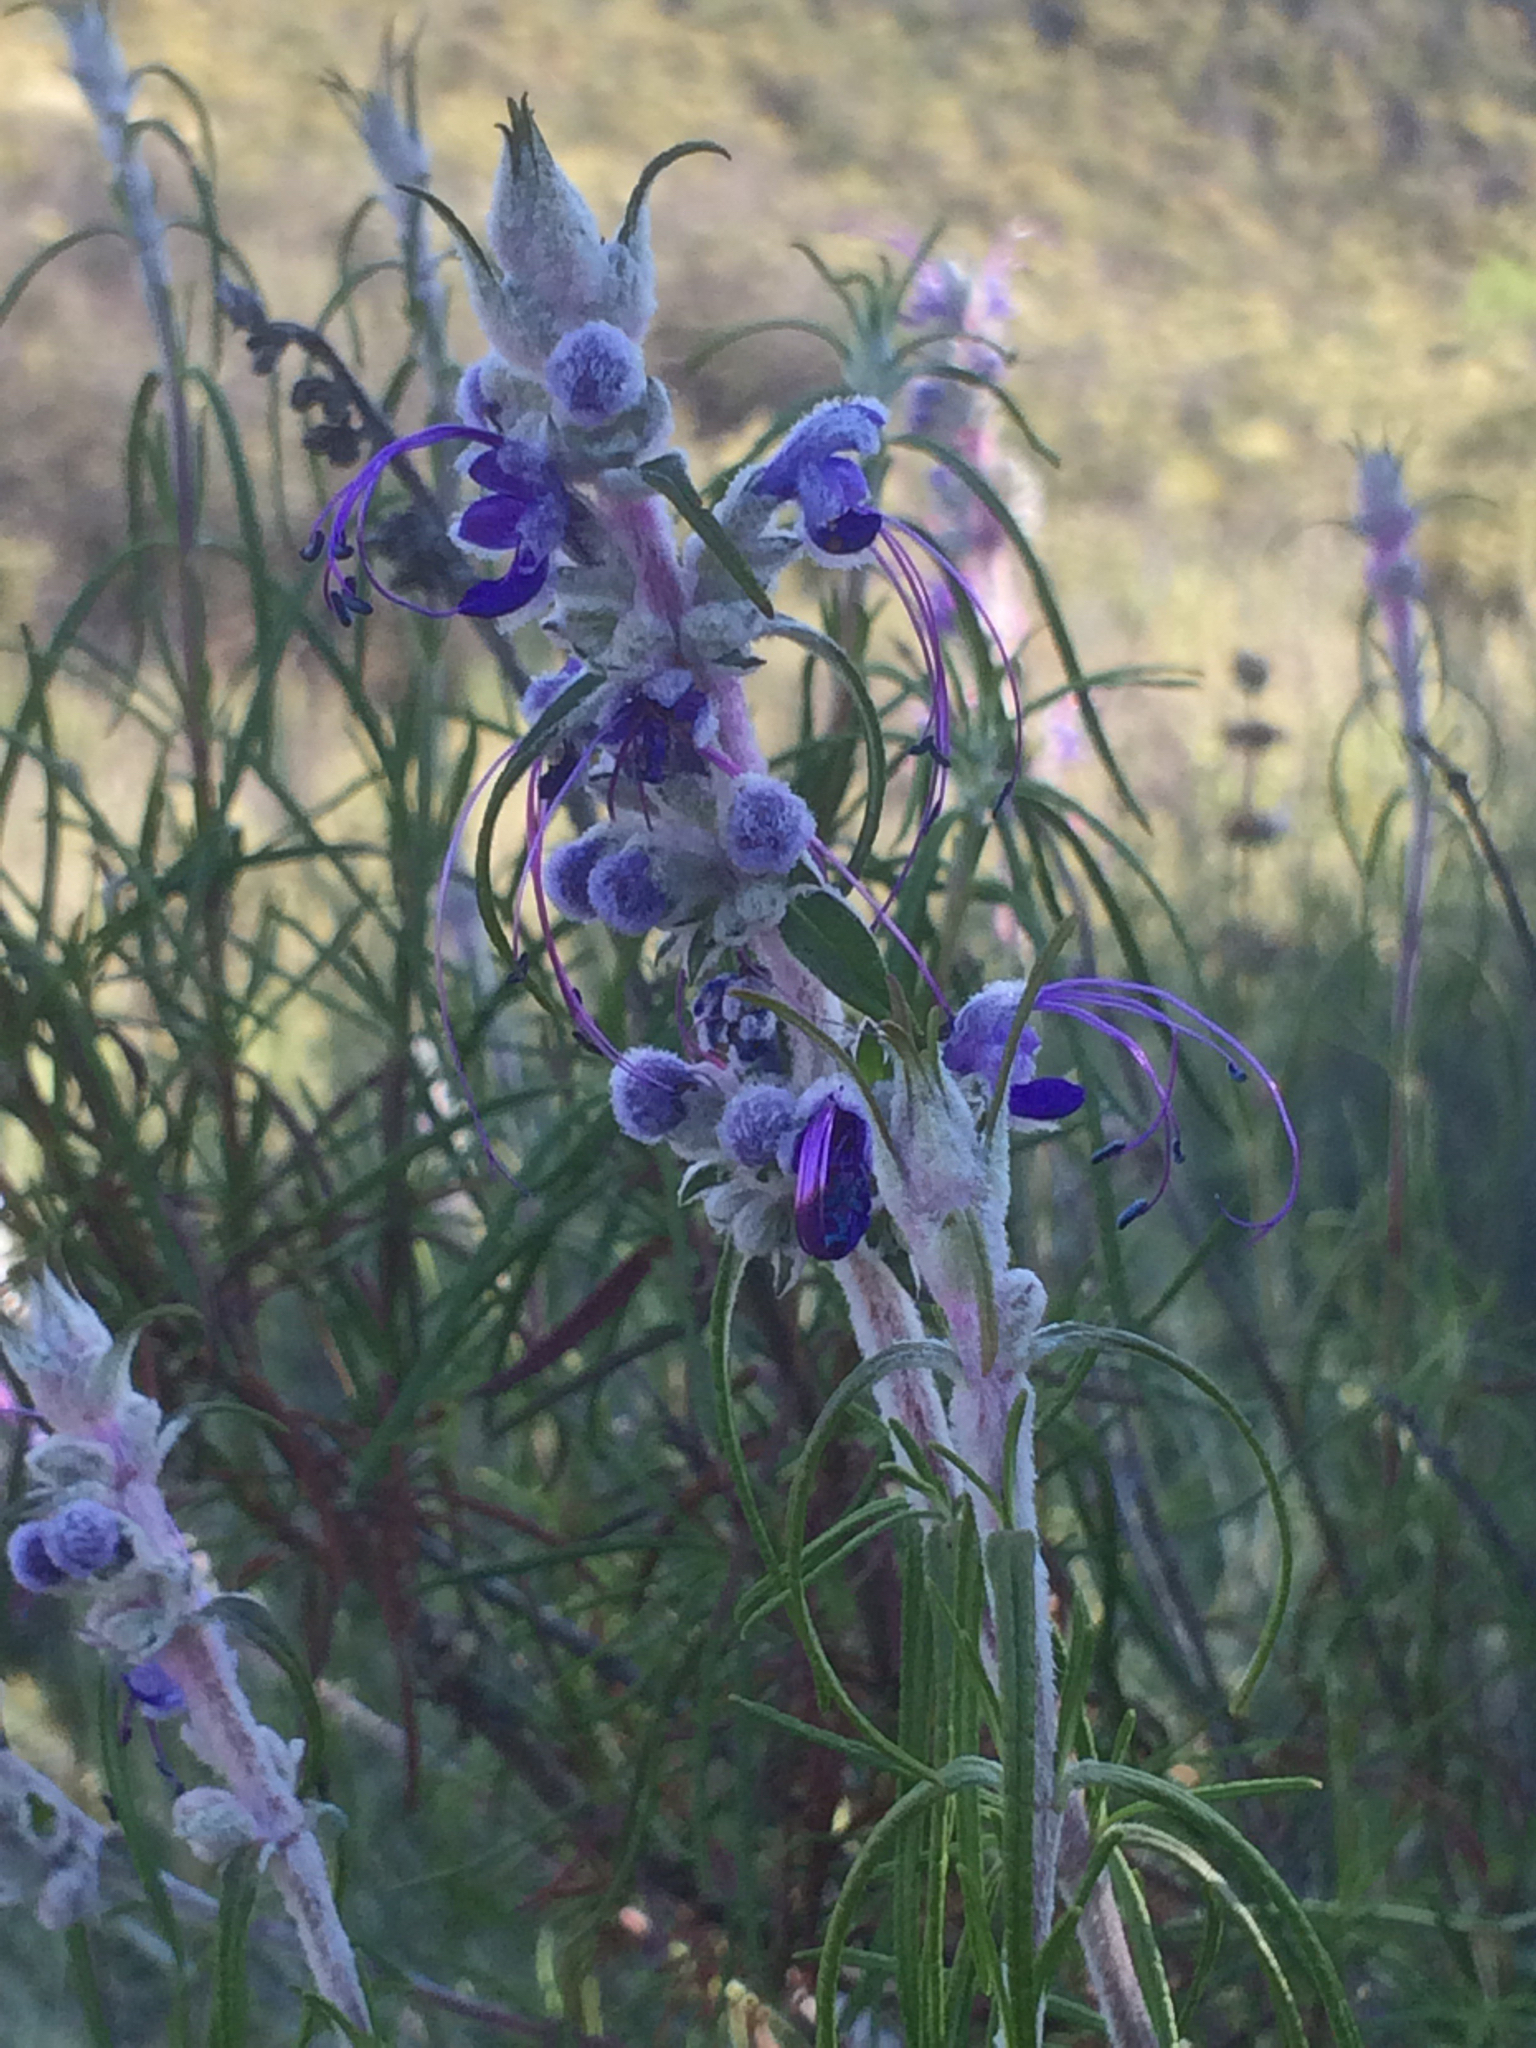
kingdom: Plantae
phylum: Tracheophyta
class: Magnoliopsida
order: Lamiales
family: Lamiaceae
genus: Trichostema
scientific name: Trichostema lanatum
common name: Woolly bluecurls
